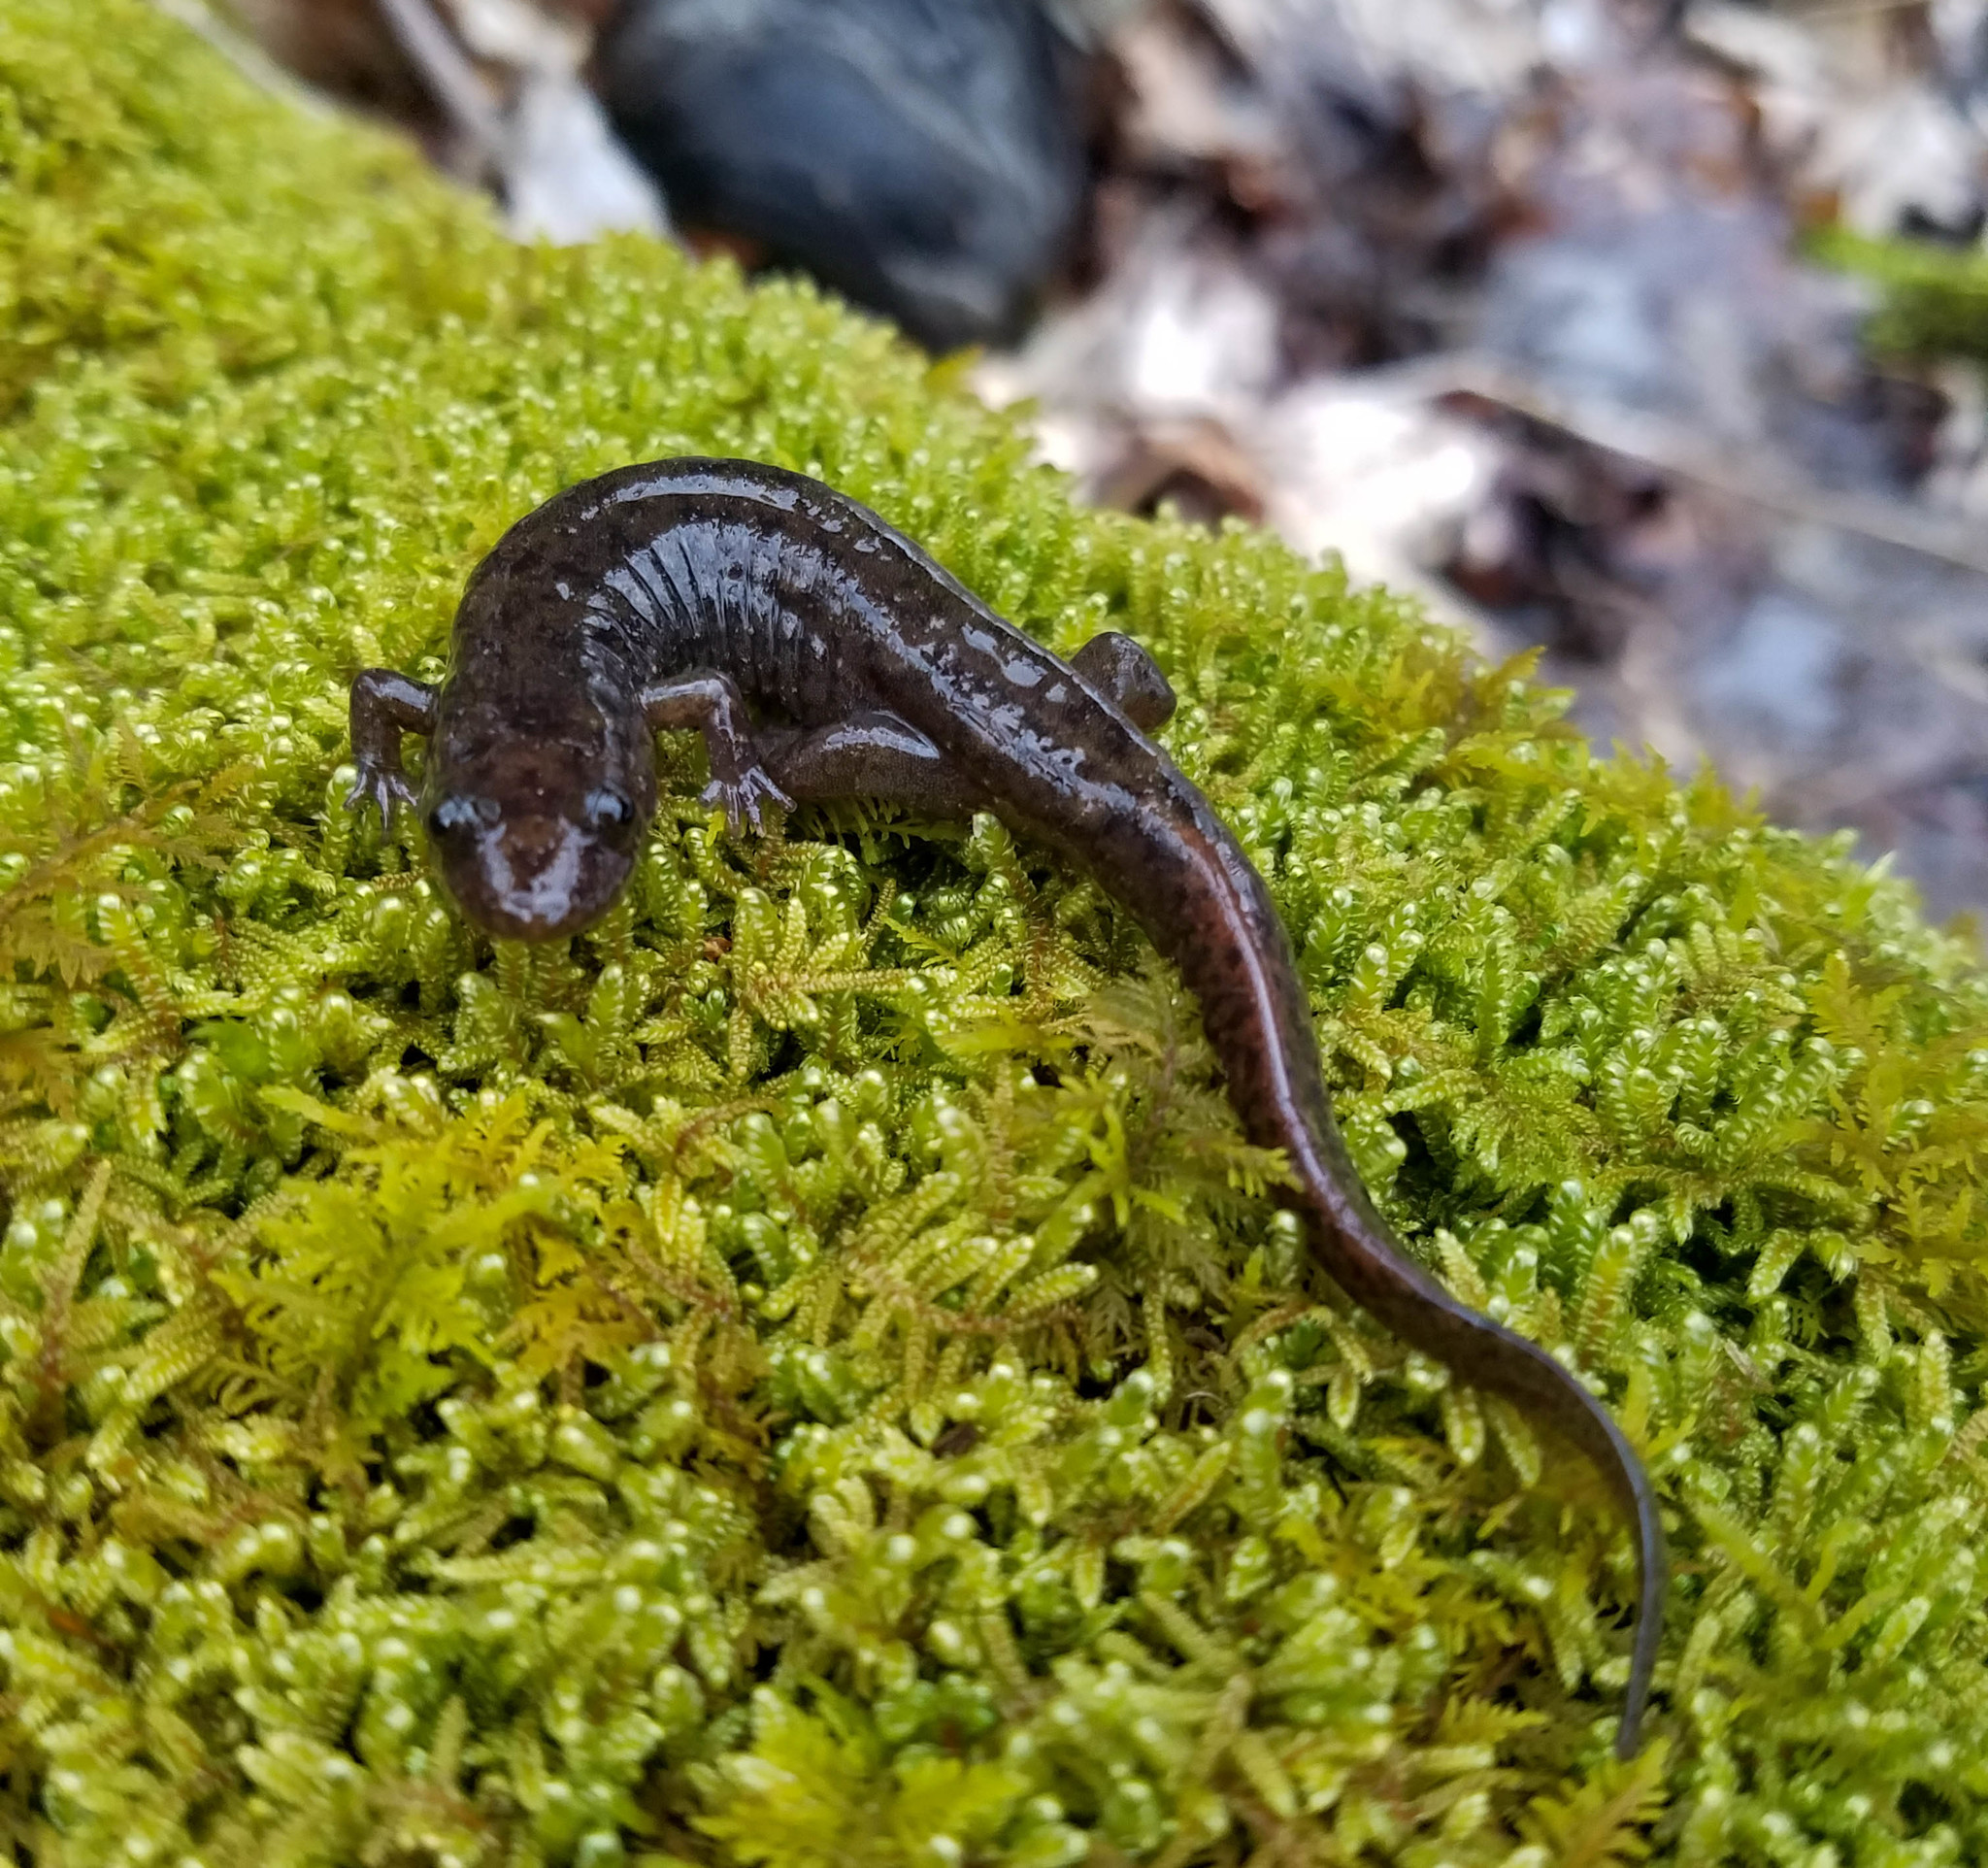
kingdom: Animalia
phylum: Chordata
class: Amphibia
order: Caudata
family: Plethodontidae
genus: Desmognathus
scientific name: Desmognathus monticola
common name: Seal salamander
